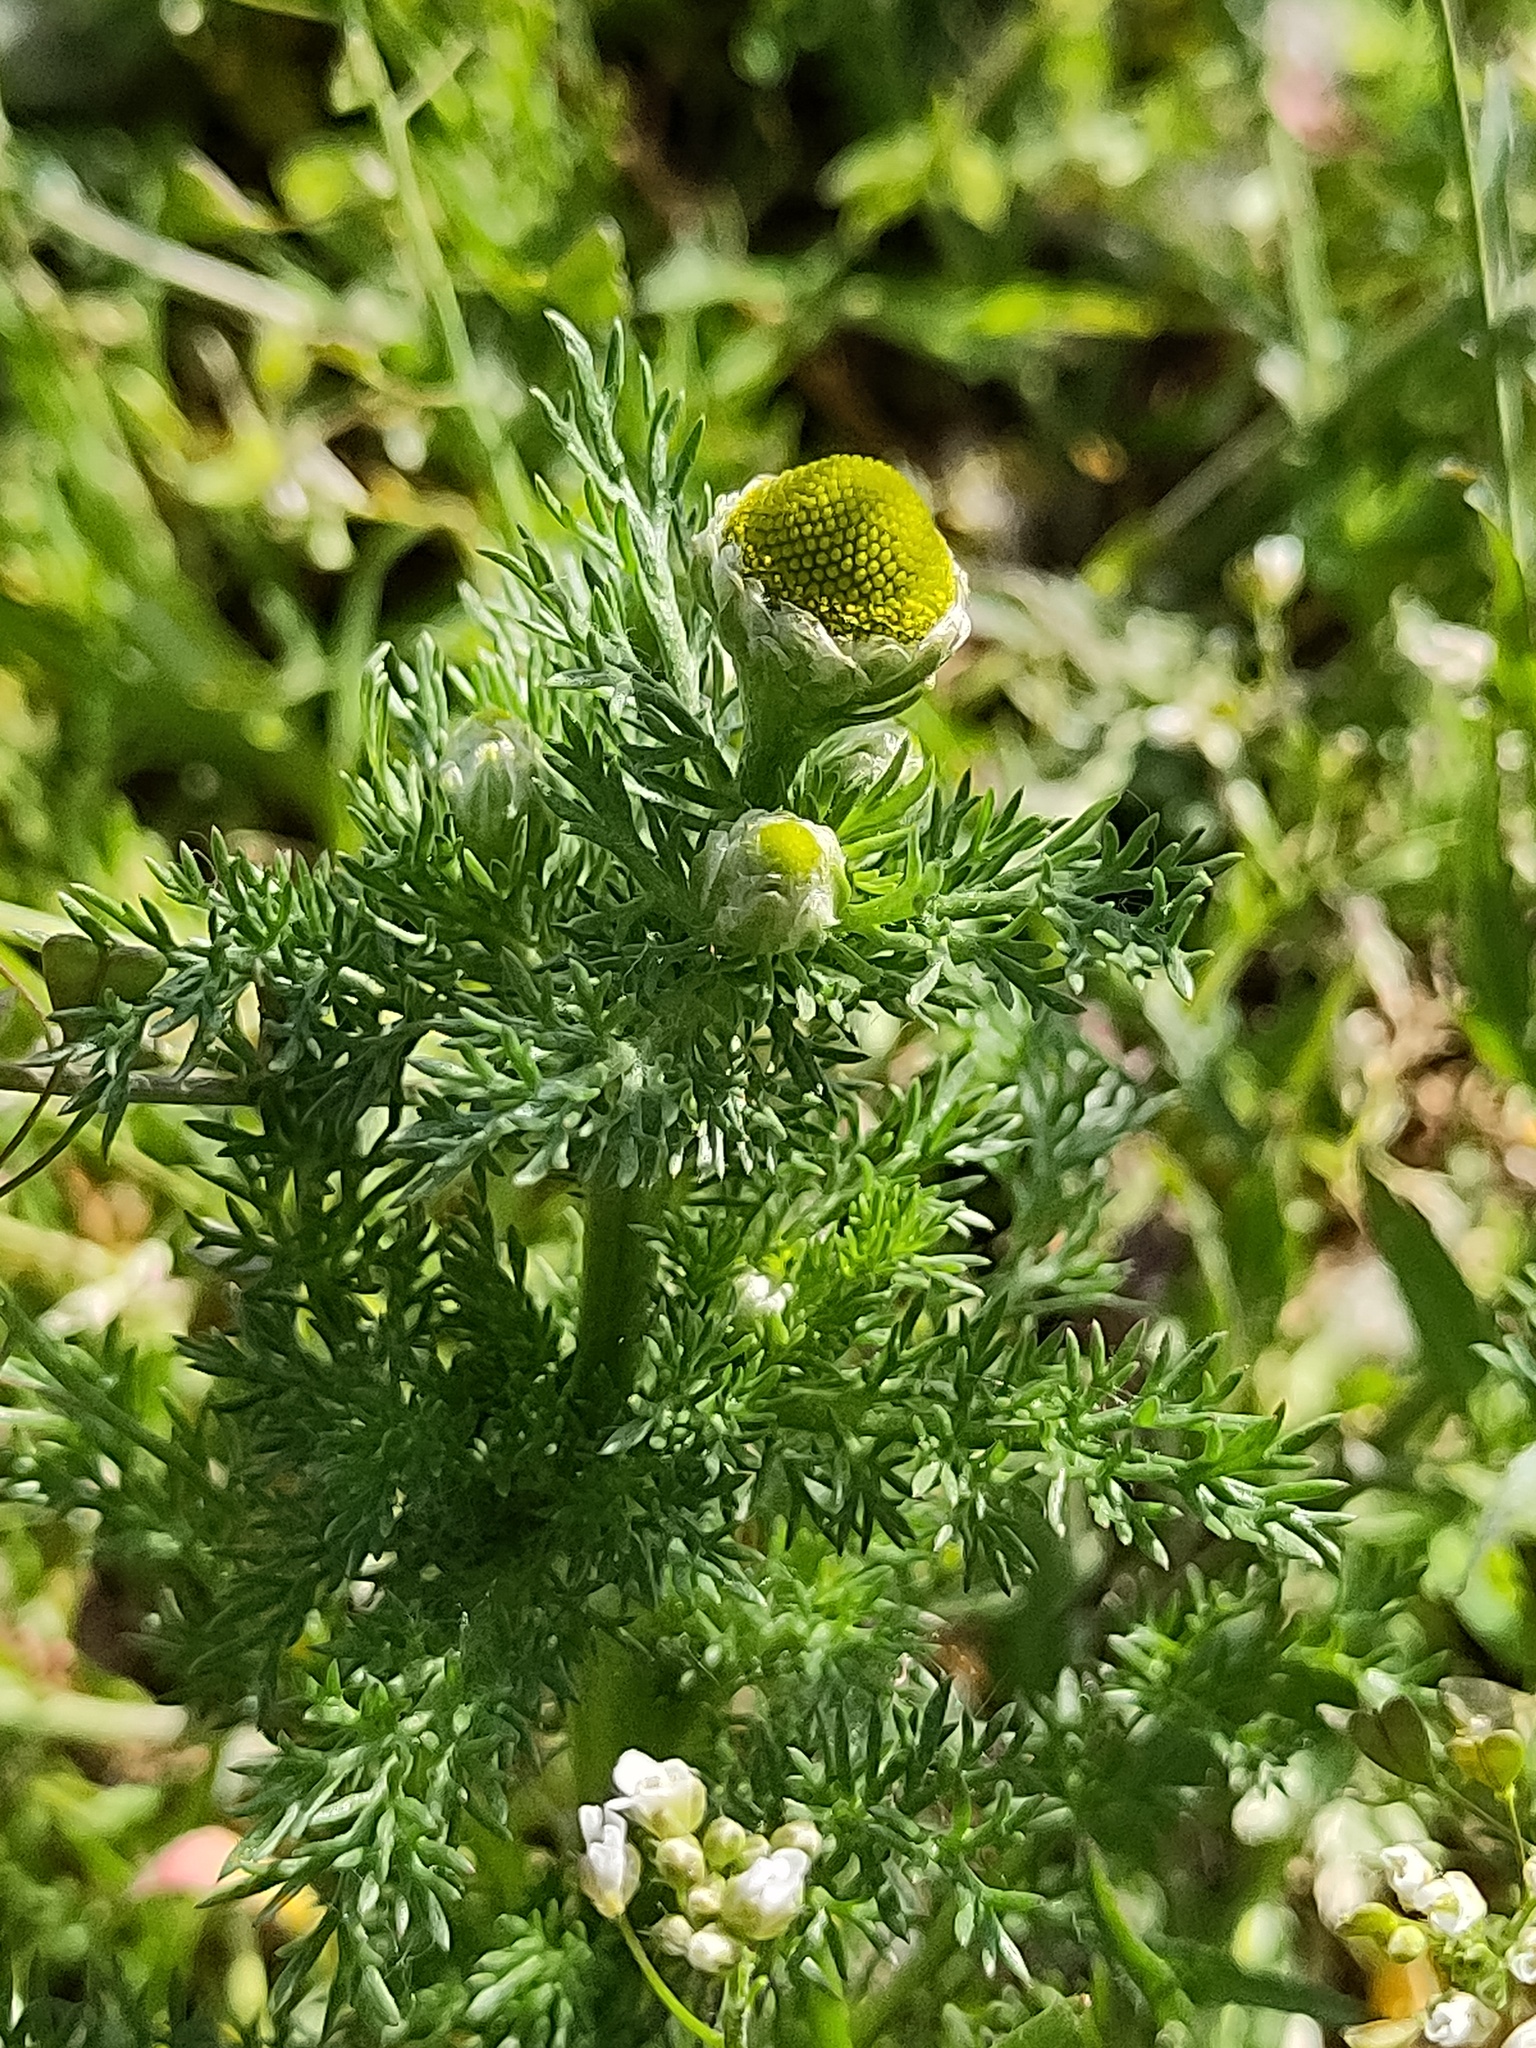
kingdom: Plantae
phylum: Tracheophyta
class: Magnoliopsida
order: Asterales
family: Asteraceae
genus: Matricaria
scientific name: Matricaria discoidea
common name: Disc mayweed
